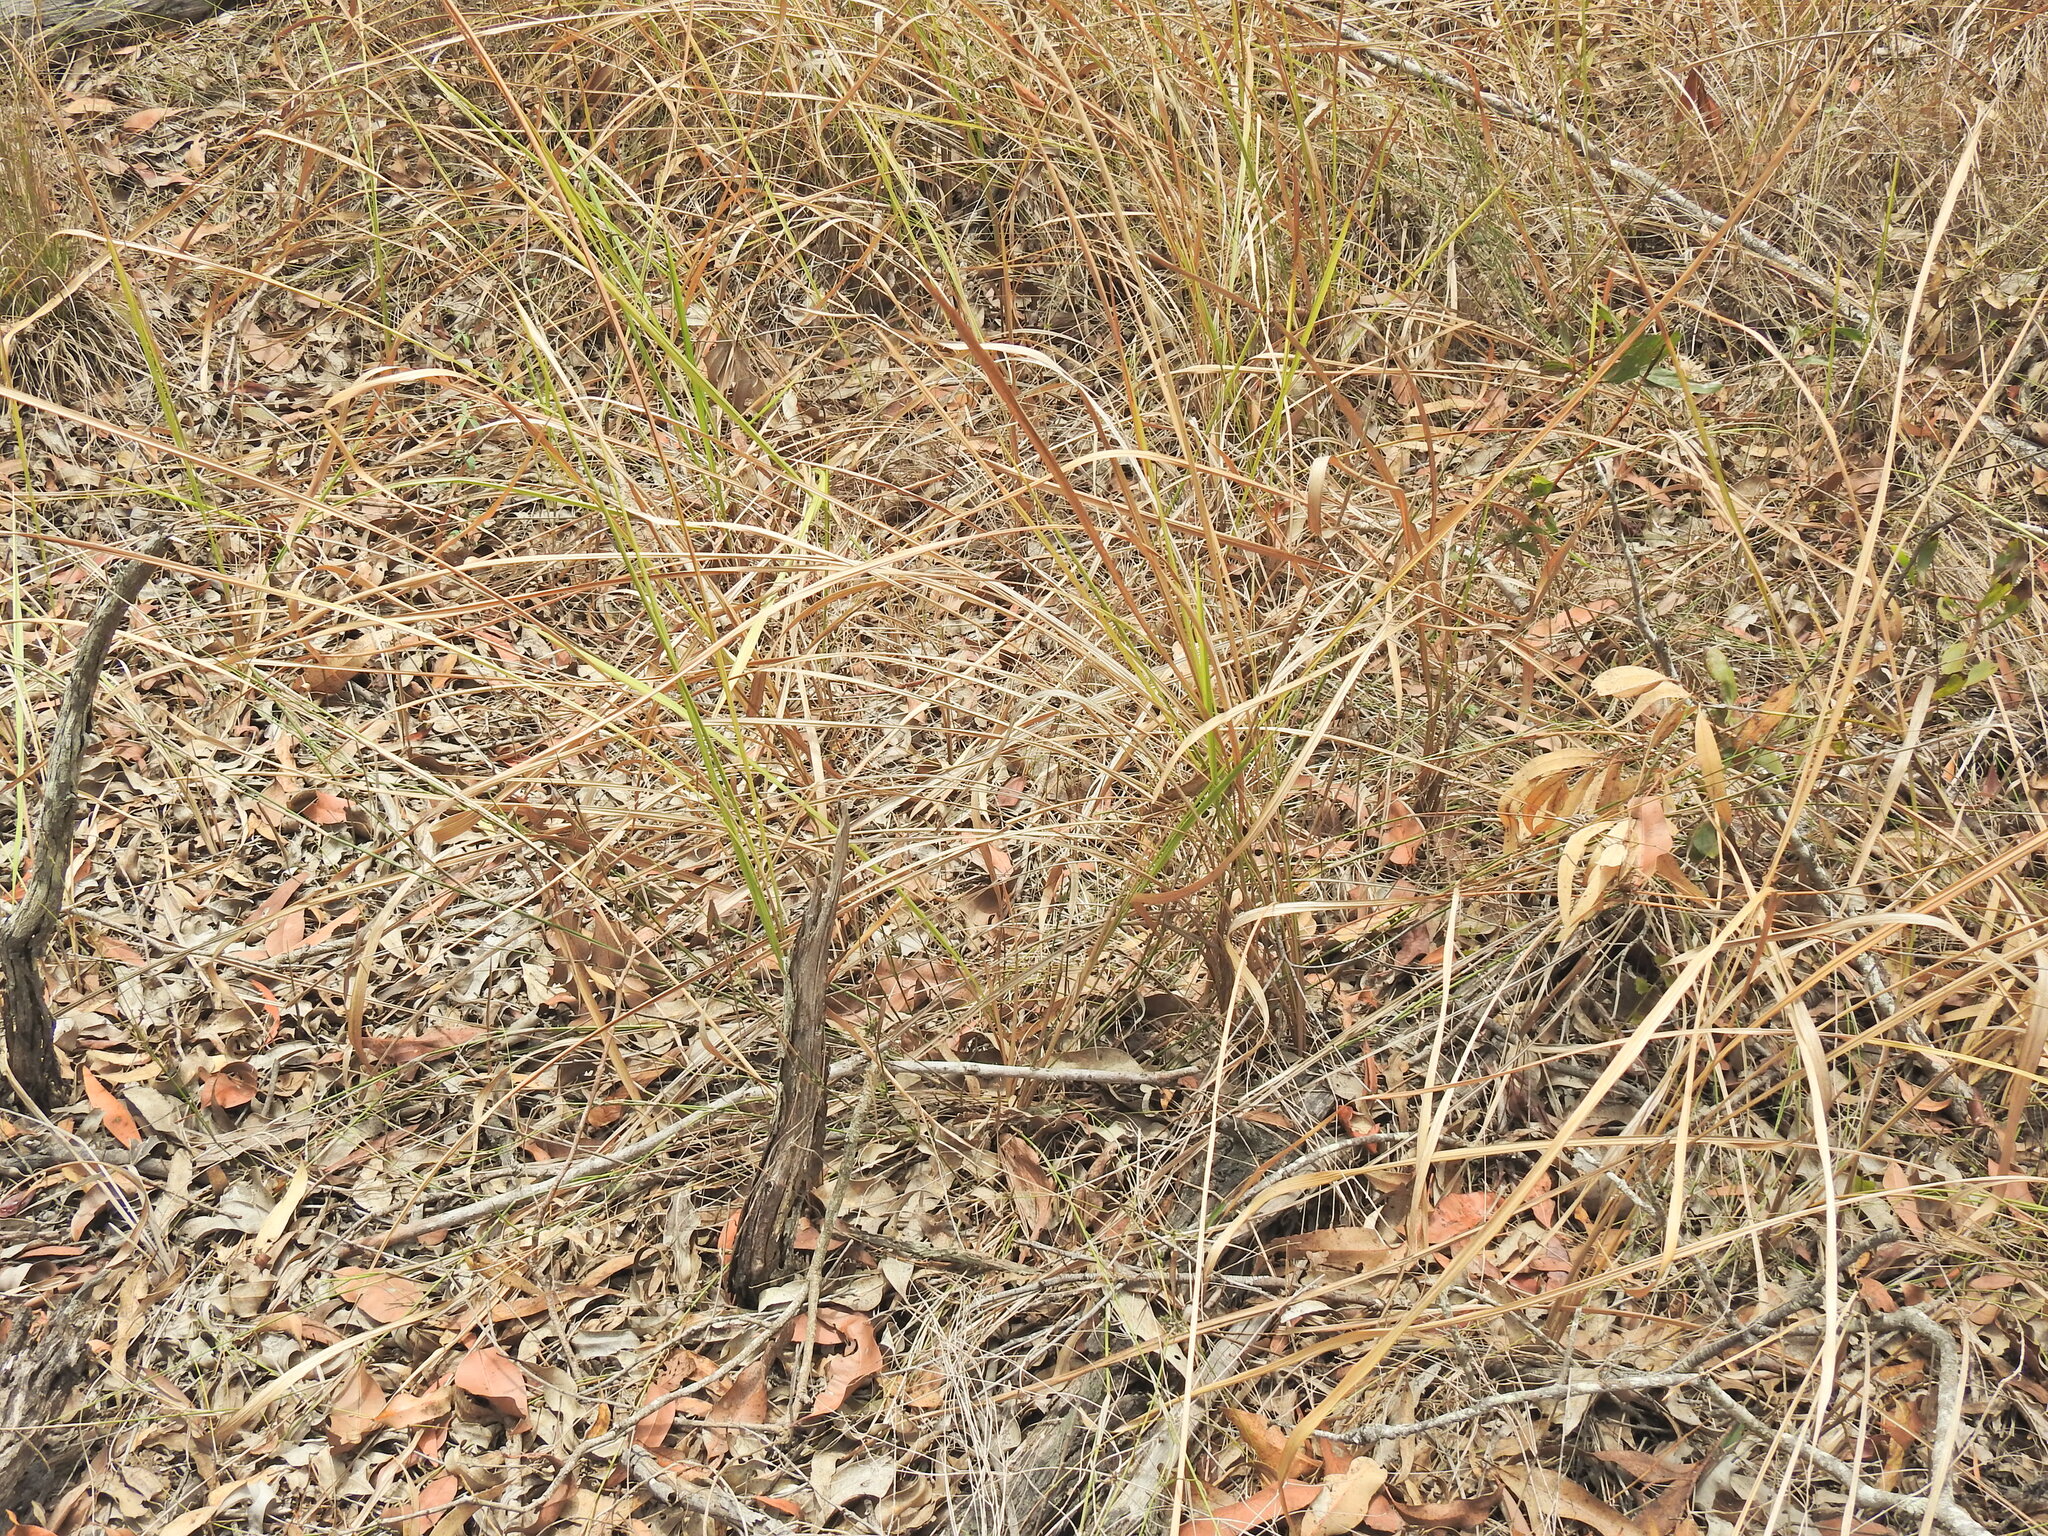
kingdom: Plantae
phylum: Tracheophyta
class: Liliopsida
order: Poales
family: Poaceae
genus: Imperata
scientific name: Imperata cylindrica
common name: Cogongrass
